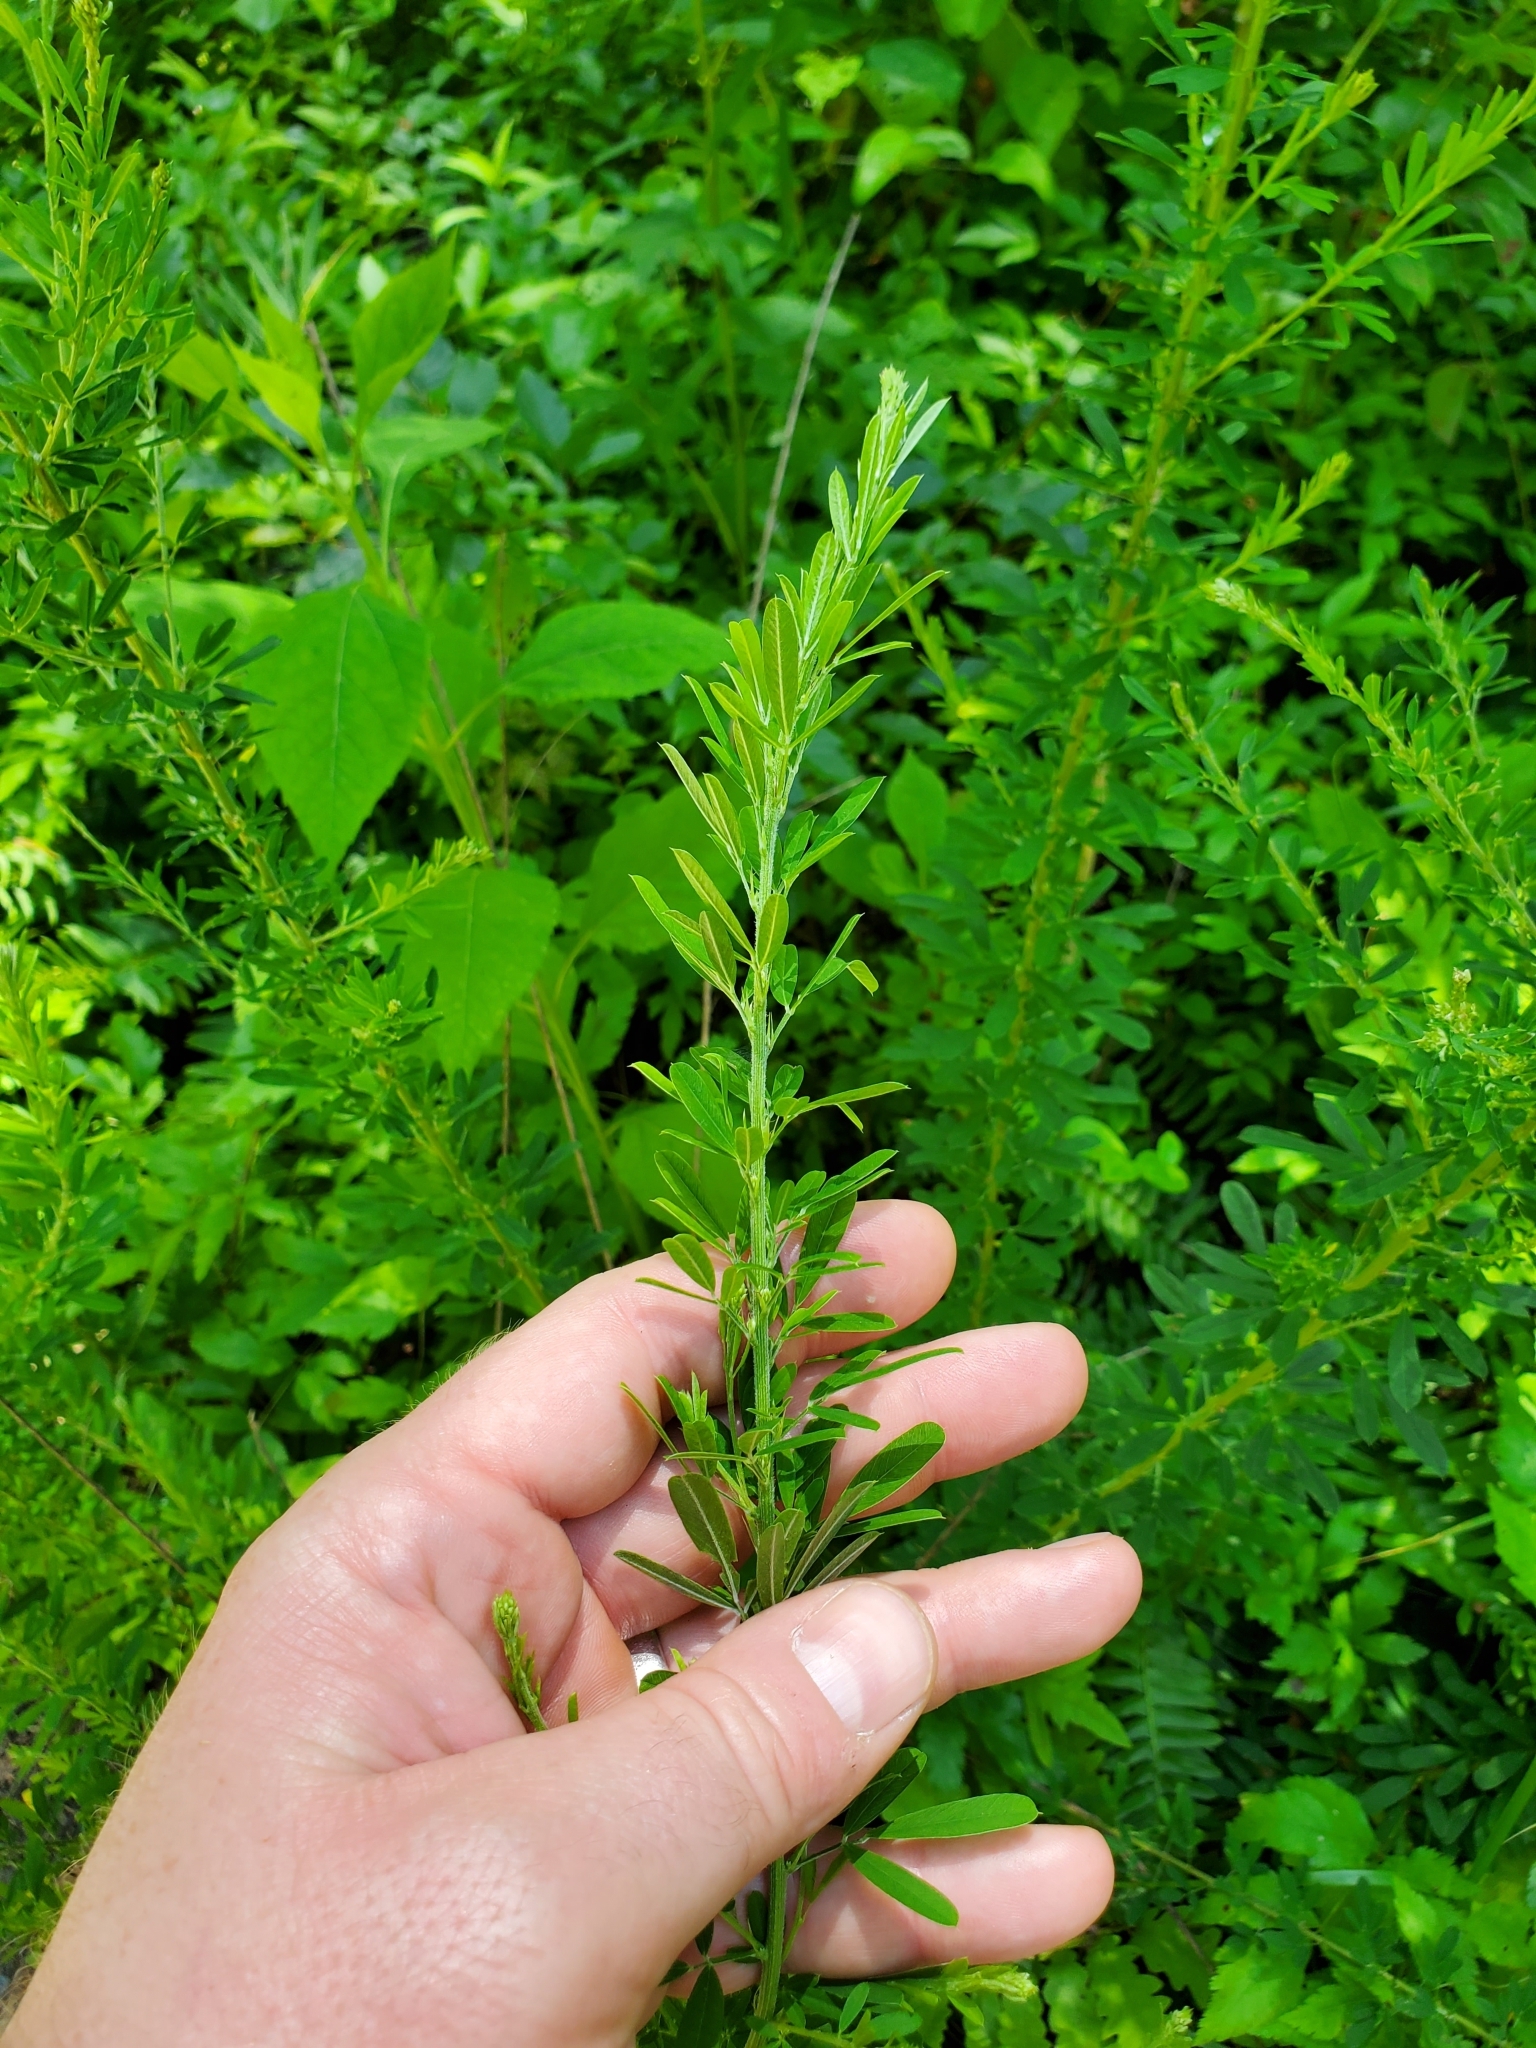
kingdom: Plantae
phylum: Tracheophyta
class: Magnoliopsida
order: Fabales
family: Fabaceae
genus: Lespedeza
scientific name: Lespedeza cuneata
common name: Chinese bush-clover
